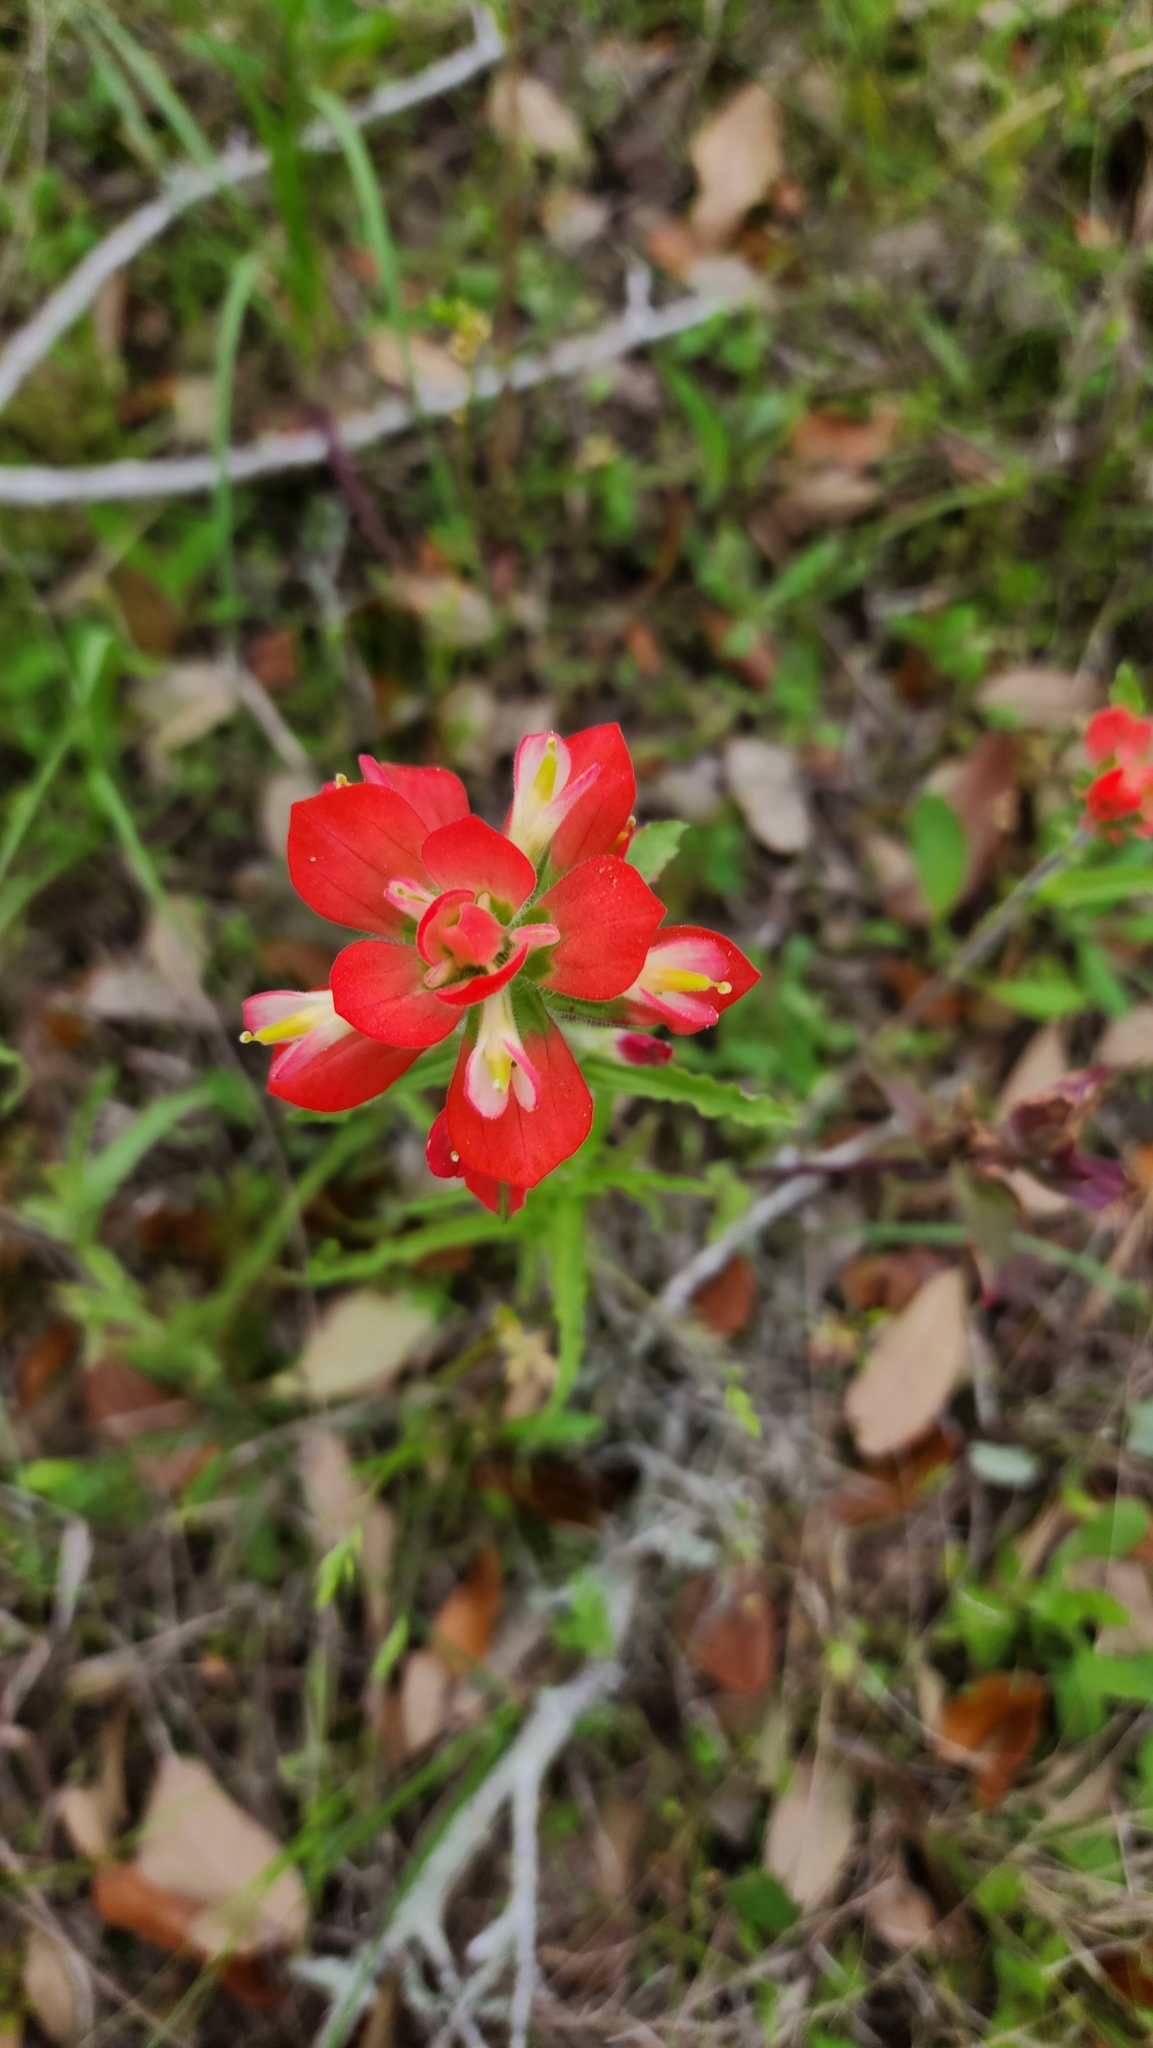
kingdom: Plantae
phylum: Tracheophyta
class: Magnoliopsida
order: Lamiales
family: Orobanchaceae
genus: Castilleja
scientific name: Castilleja indivisa
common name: Texas paintbrush
